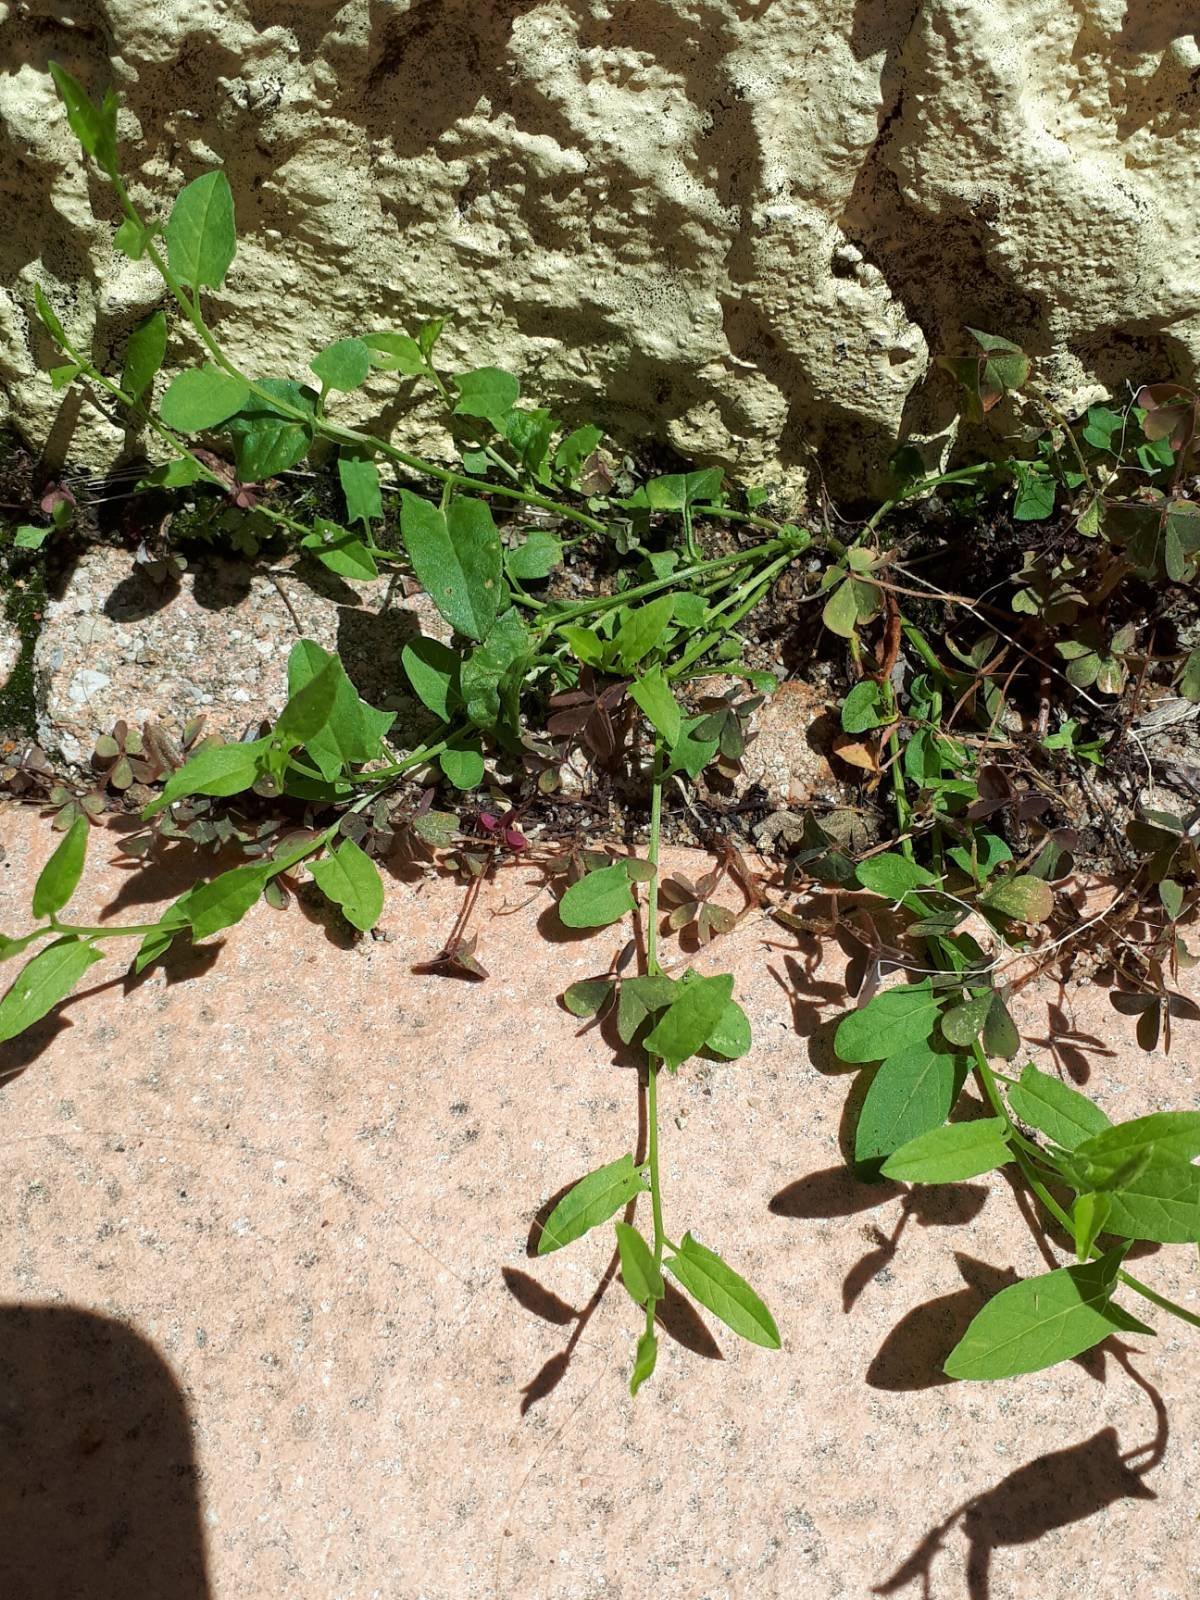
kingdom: Plantae
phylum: Tracheophyta
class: Magnoliopsida
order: Solanales
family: Convolvulaceae
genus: Convolvulus
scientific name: Convolvulus arvensis
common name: Field bindweed
